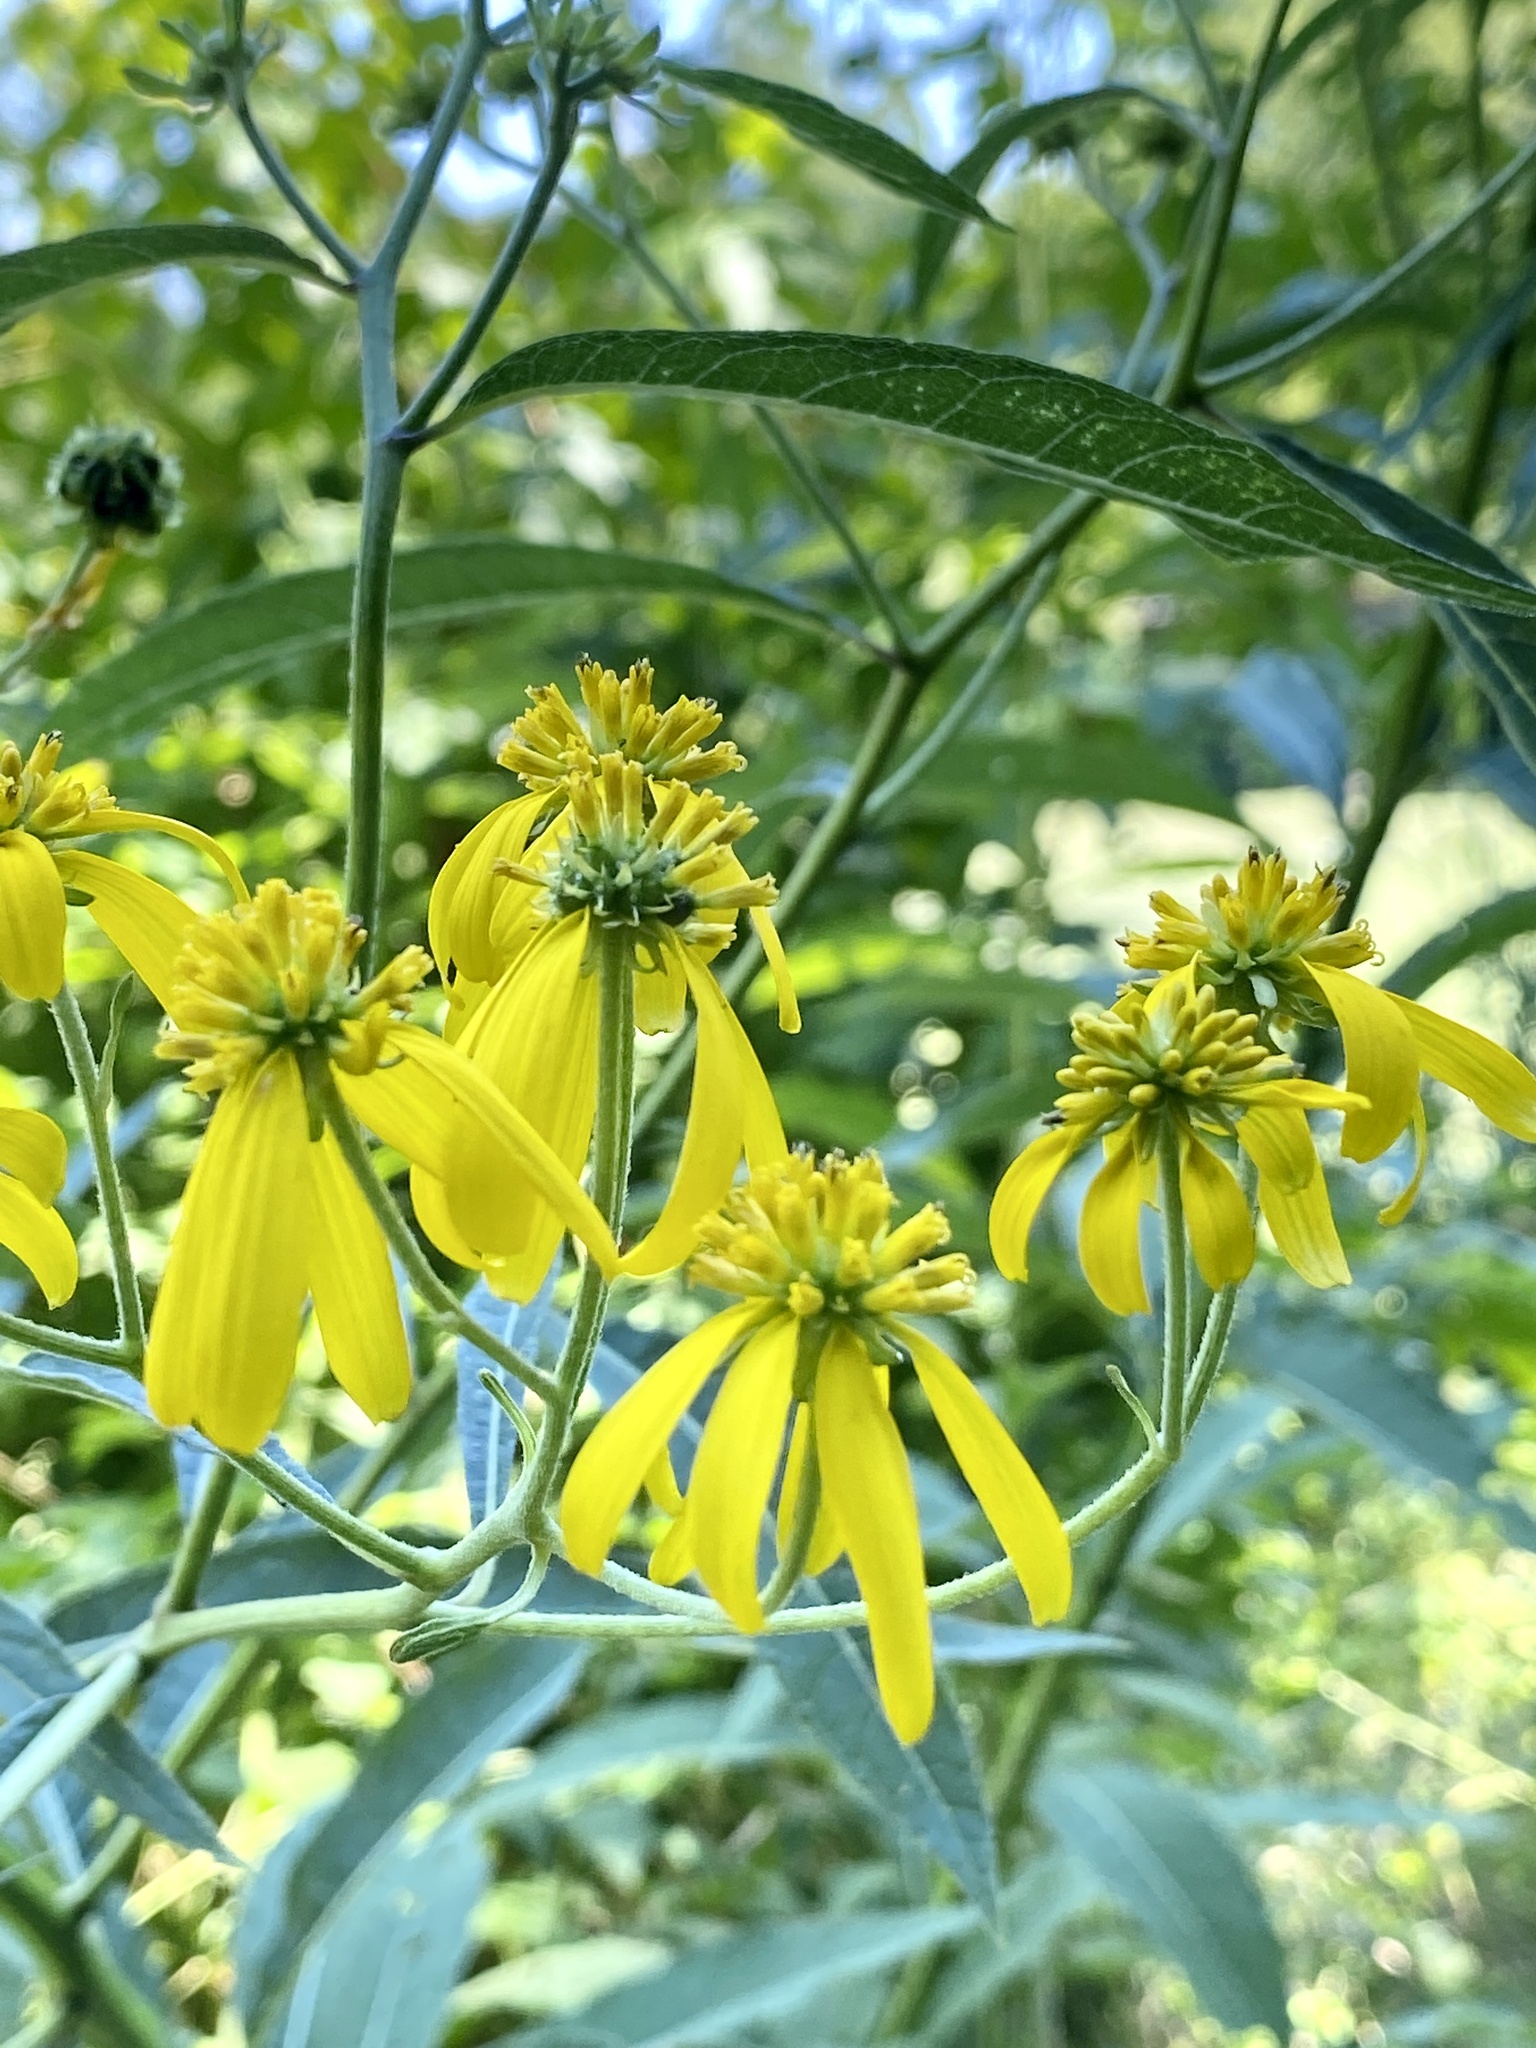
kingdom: Plantae
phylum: Tracheophyta
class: Magnoliopsida
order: Asterales
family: Asteraceae
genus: Verbesina
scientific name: Verbesina alternifolia
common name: Wingstem
